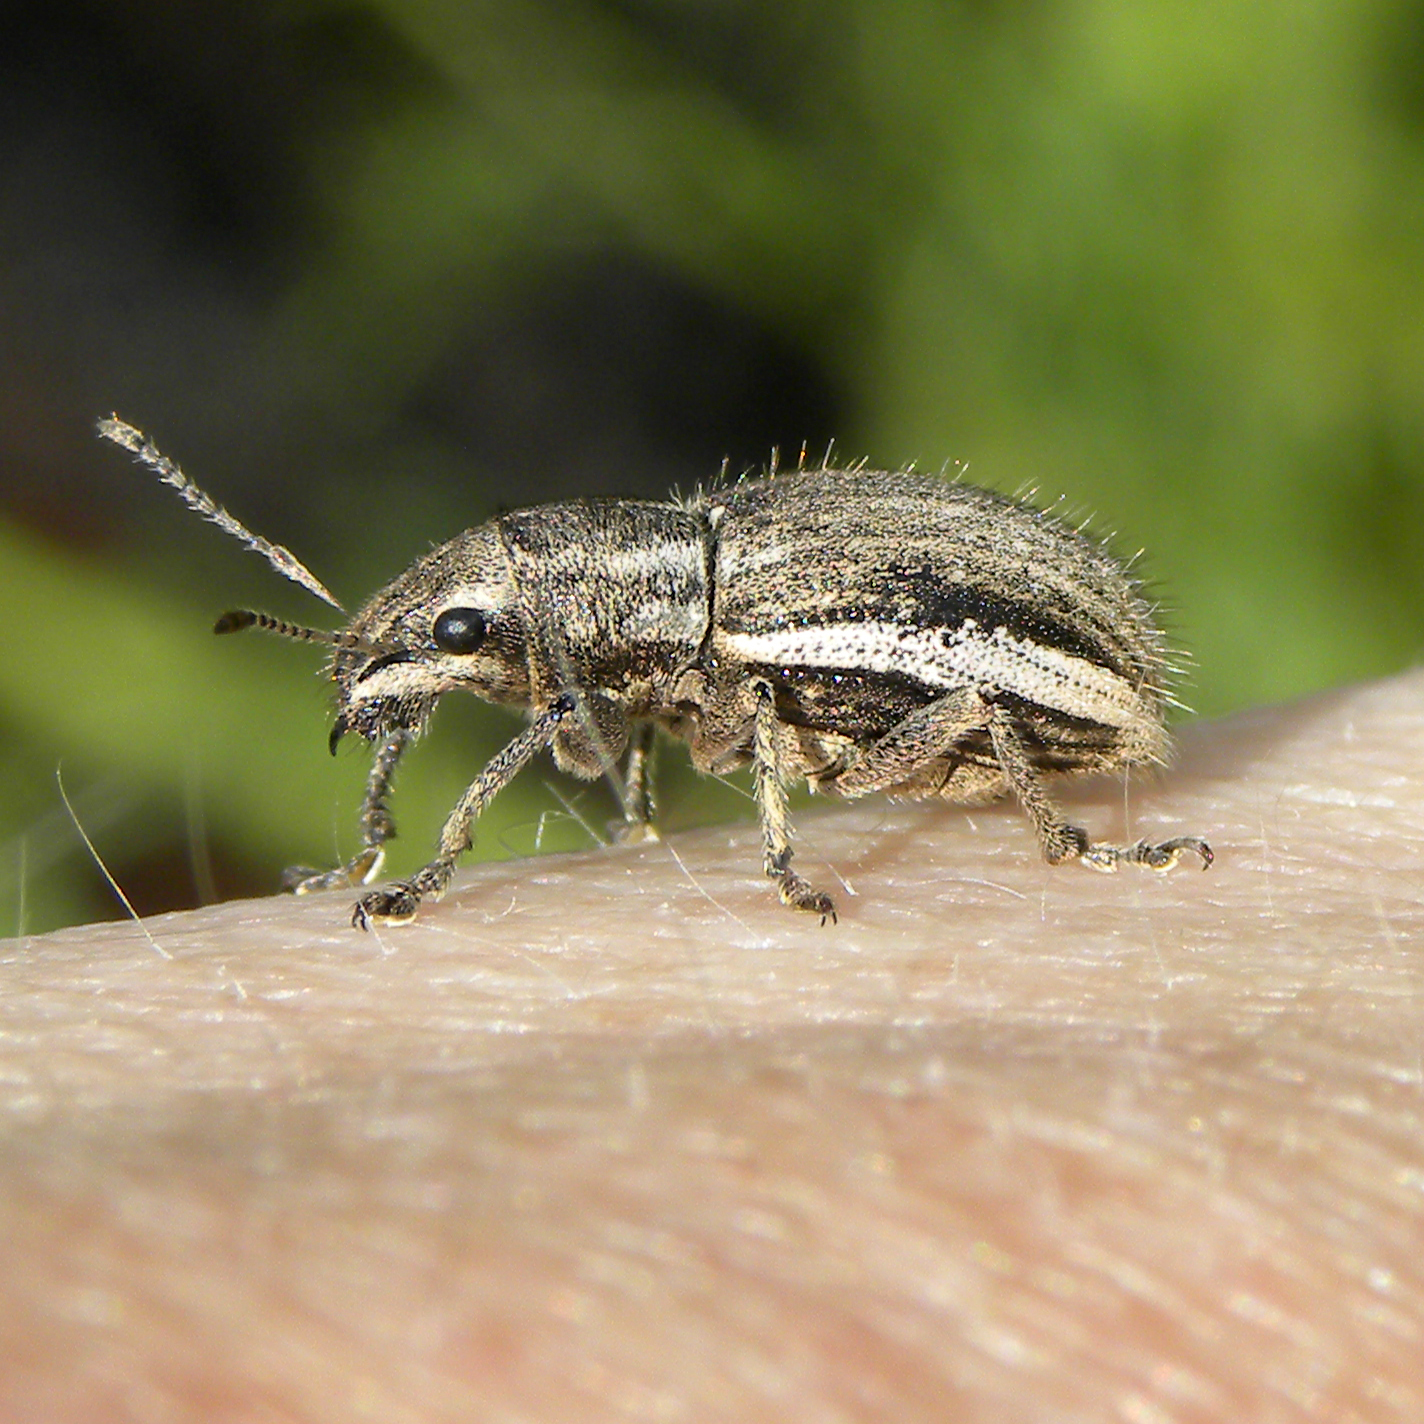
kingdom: Animalia
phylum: Arthropoda
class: Insecta
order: Coleoptera
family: Curculionidae
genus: Naupactus
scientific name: Naupactus leucoloma
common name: Whitefringed beetle
